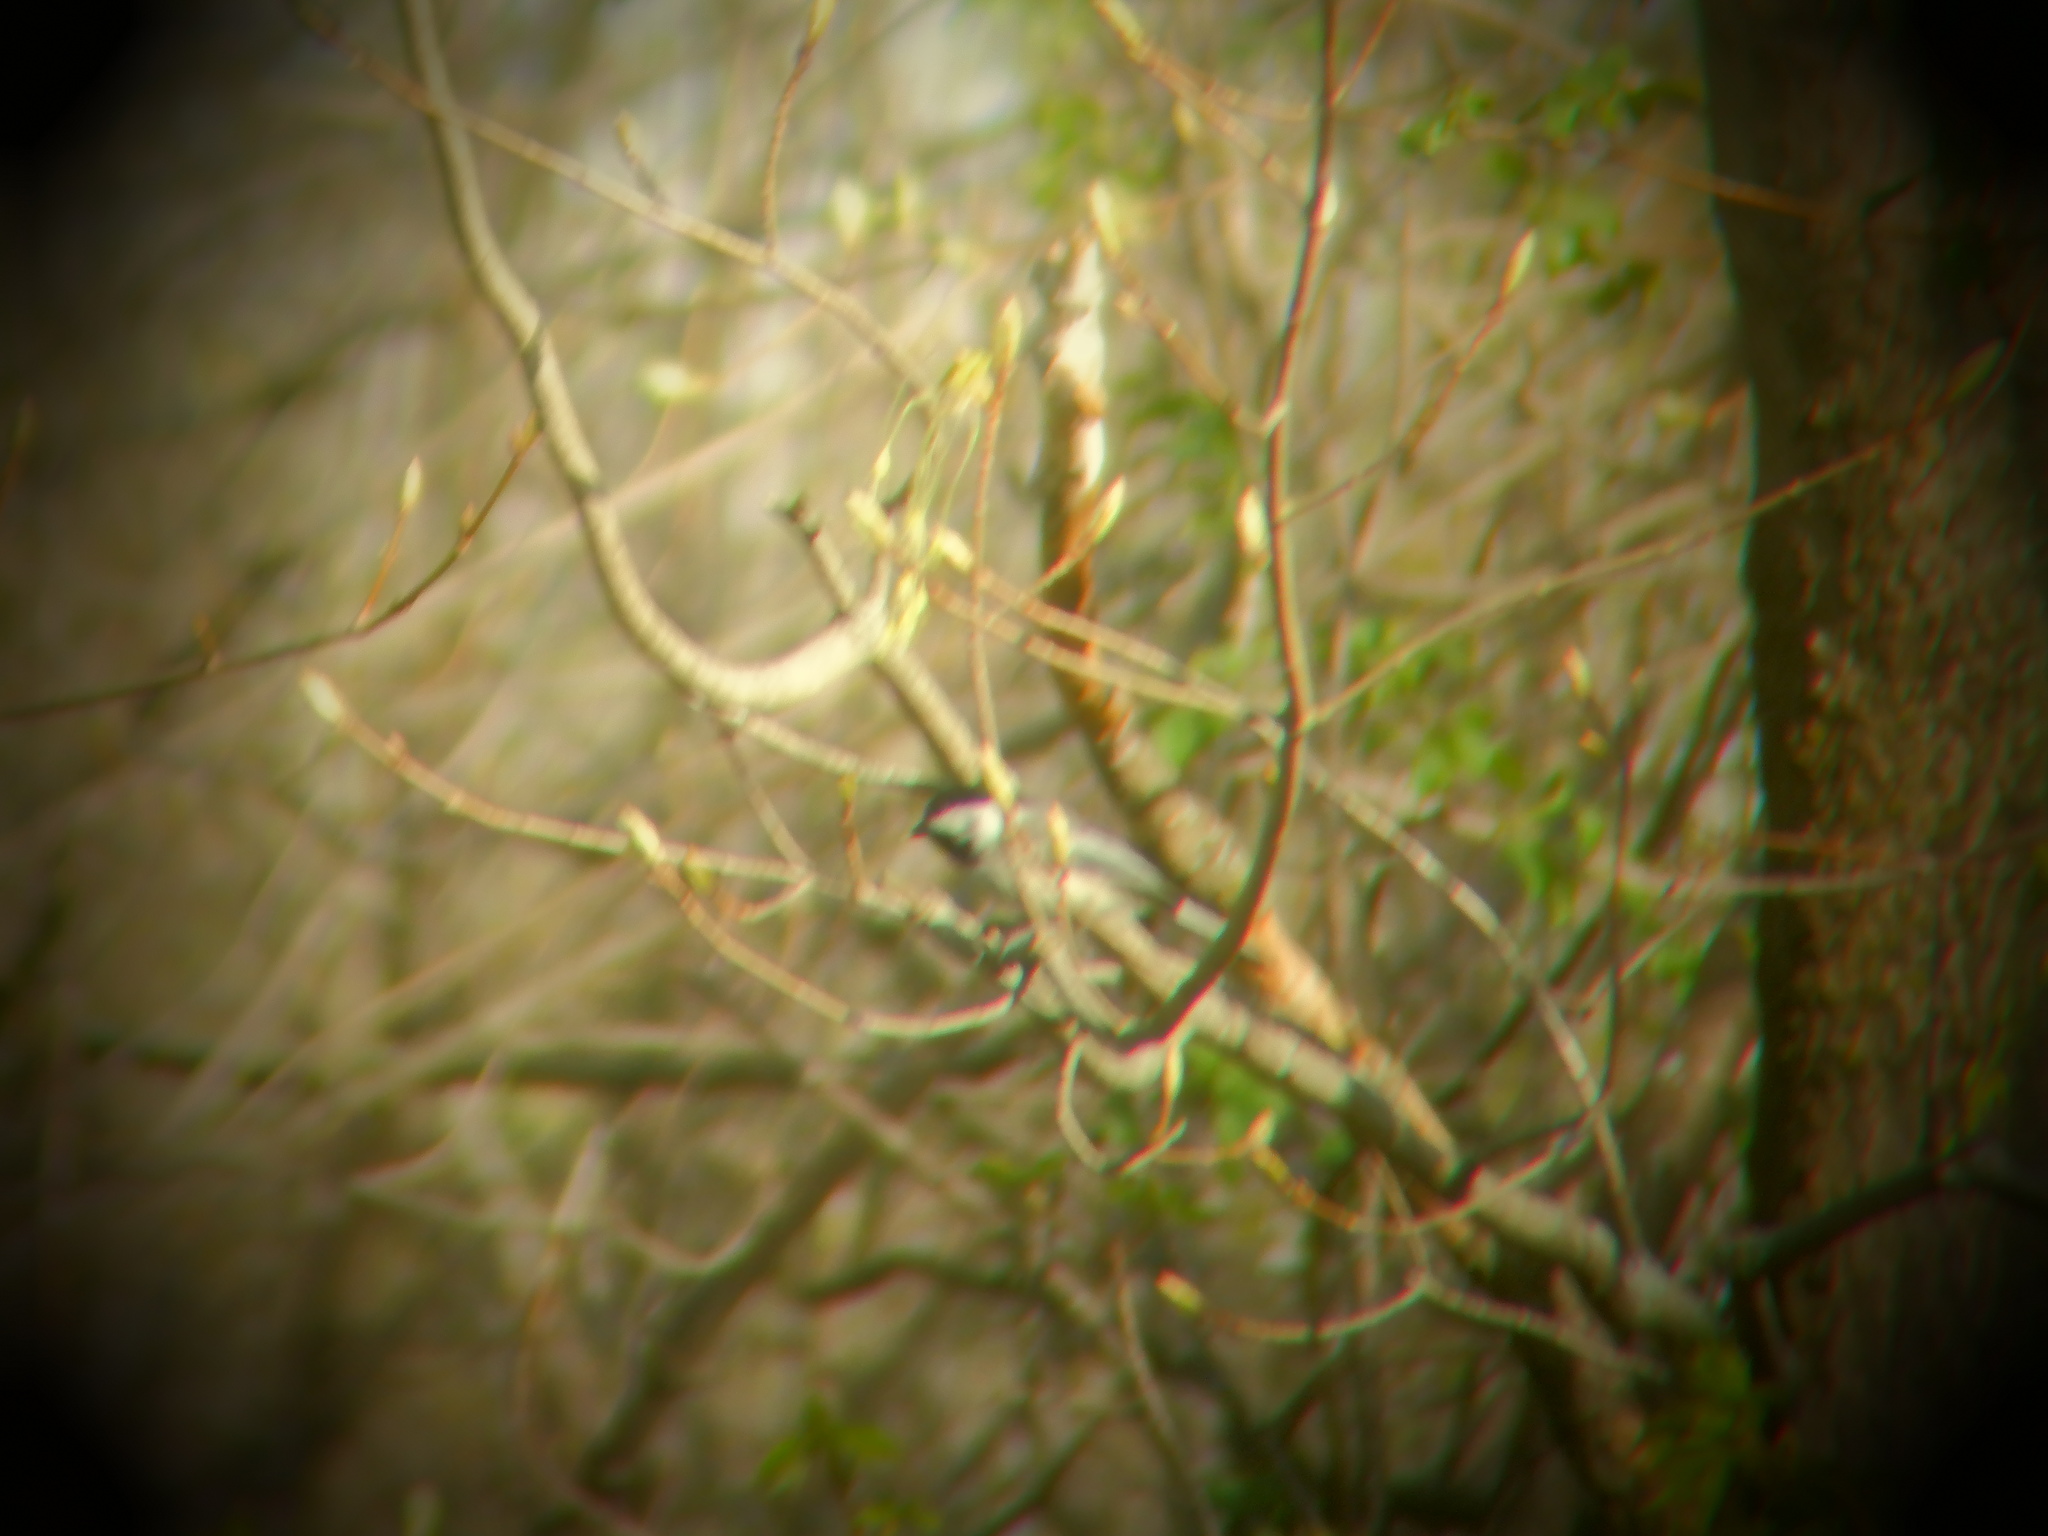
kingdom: Animalia
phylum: Chordata
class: Aves
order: Passeriformes
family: Paridae
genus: Poecile
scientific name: Poecile atricapillus
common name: Black-capped chickadee
